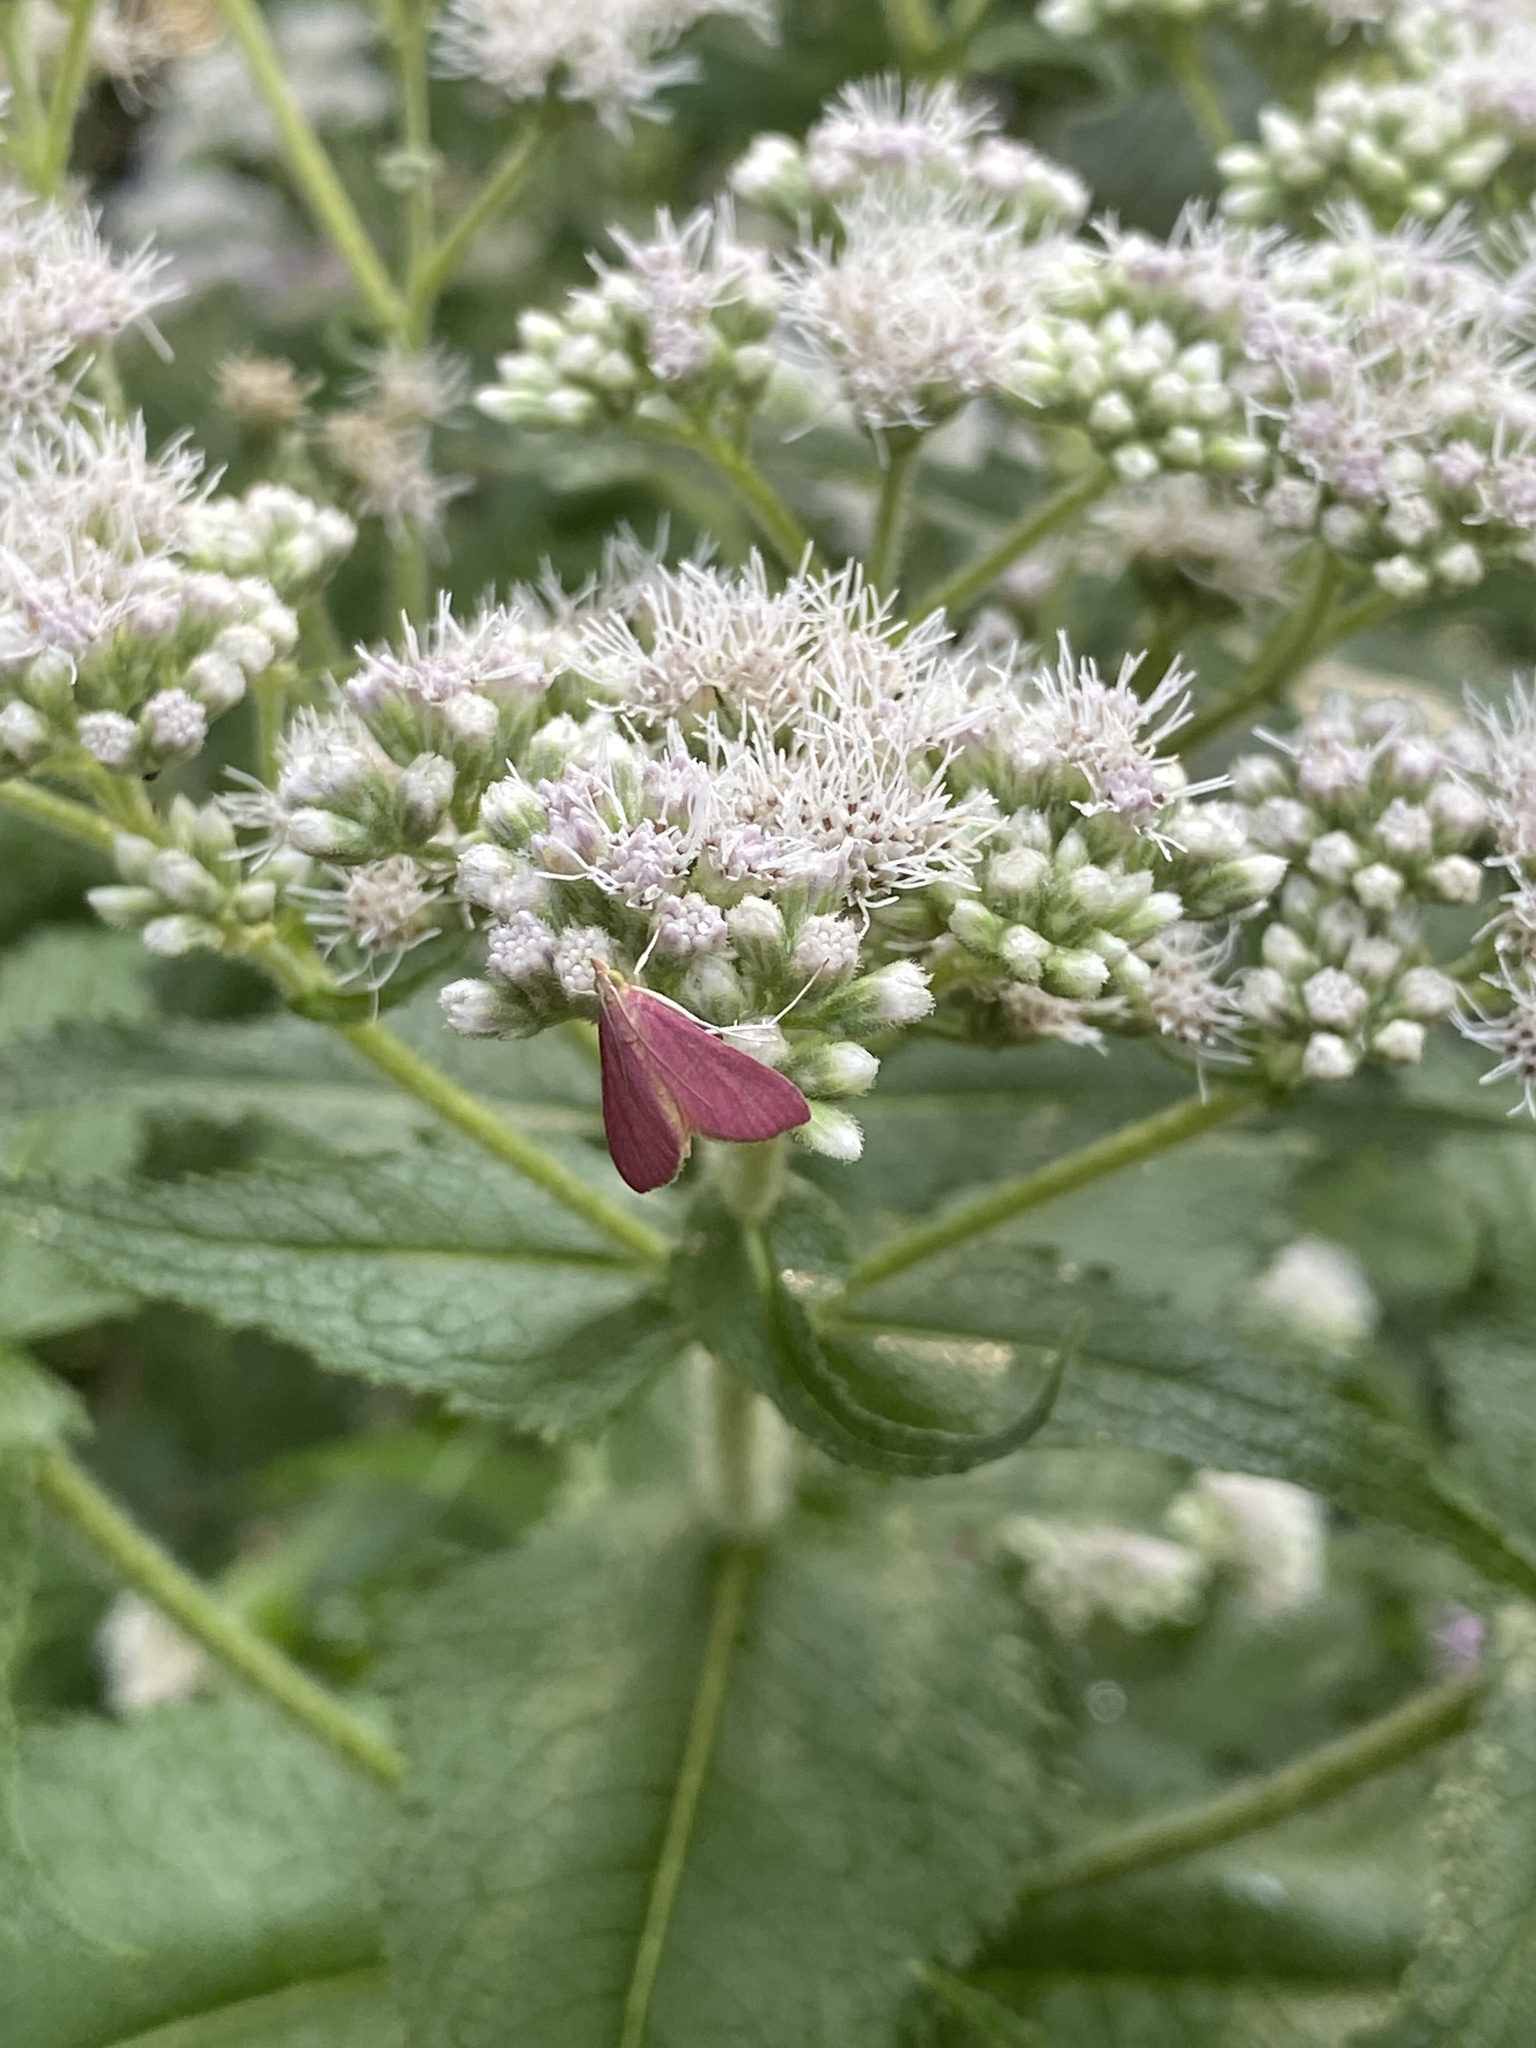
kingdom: Animalia
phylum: Arthropoda
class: Insecta
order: Lepidoptera
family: Crambidae
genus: Pyrausta
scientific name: Pyrausta inornatalis
